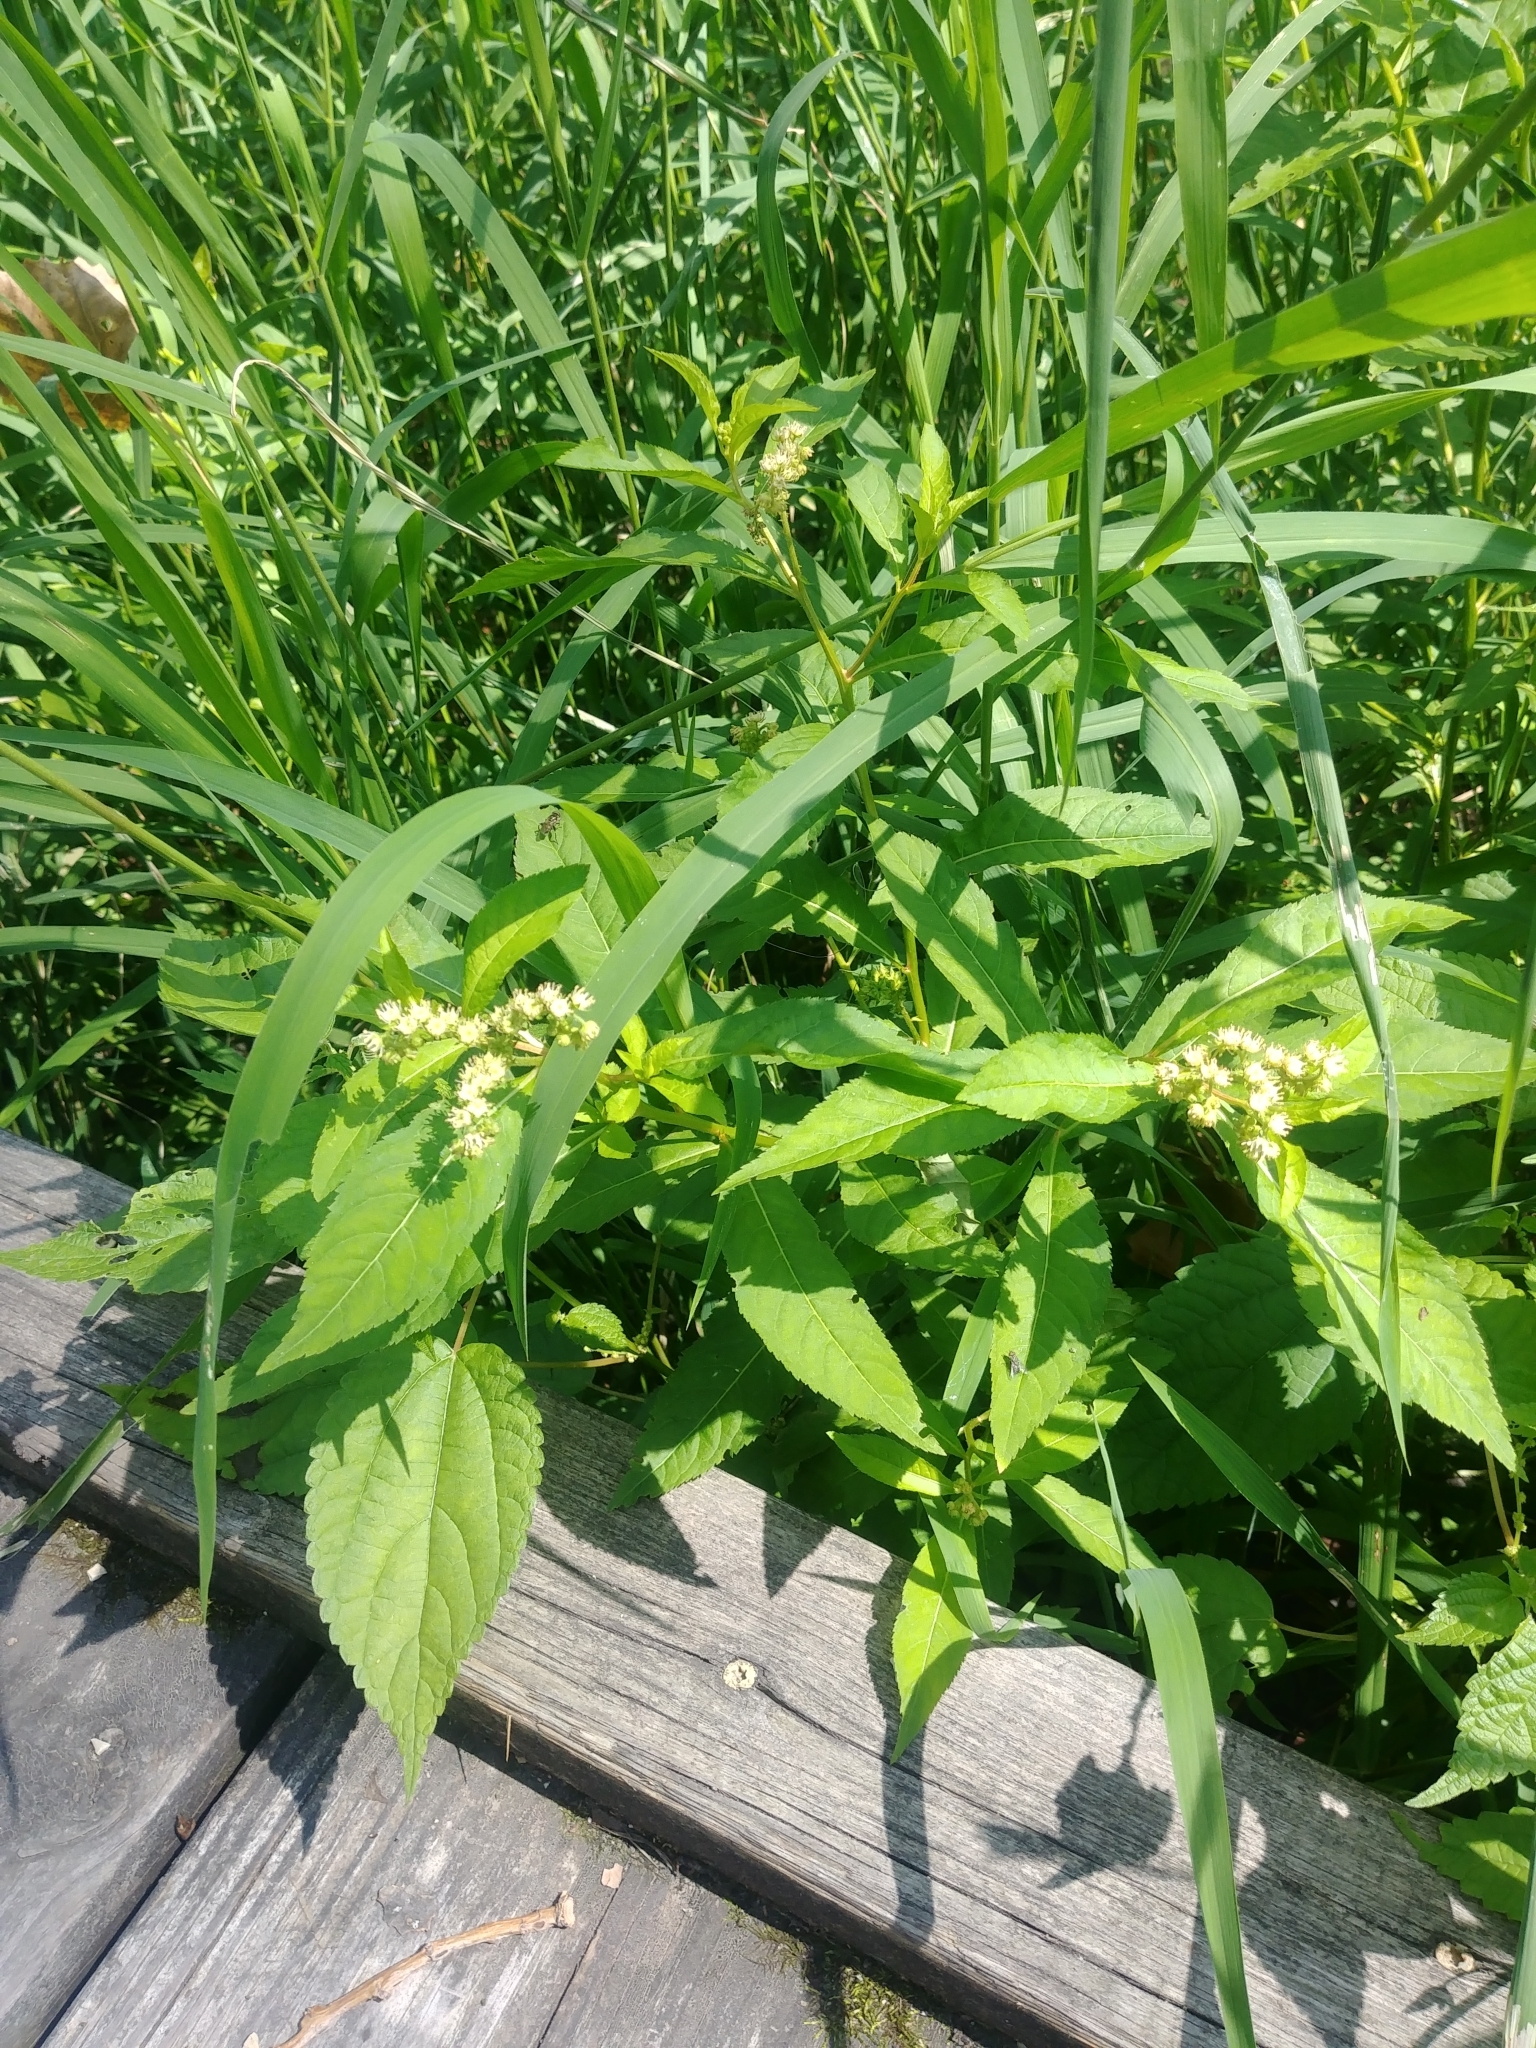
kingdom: Plantae
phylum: Tracheophyta
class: Magnoliopsida
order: Saxifragales
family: Penthoraceae
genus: Penthorum
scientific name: Penthorum sedoides
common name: Ditch stonecrop
